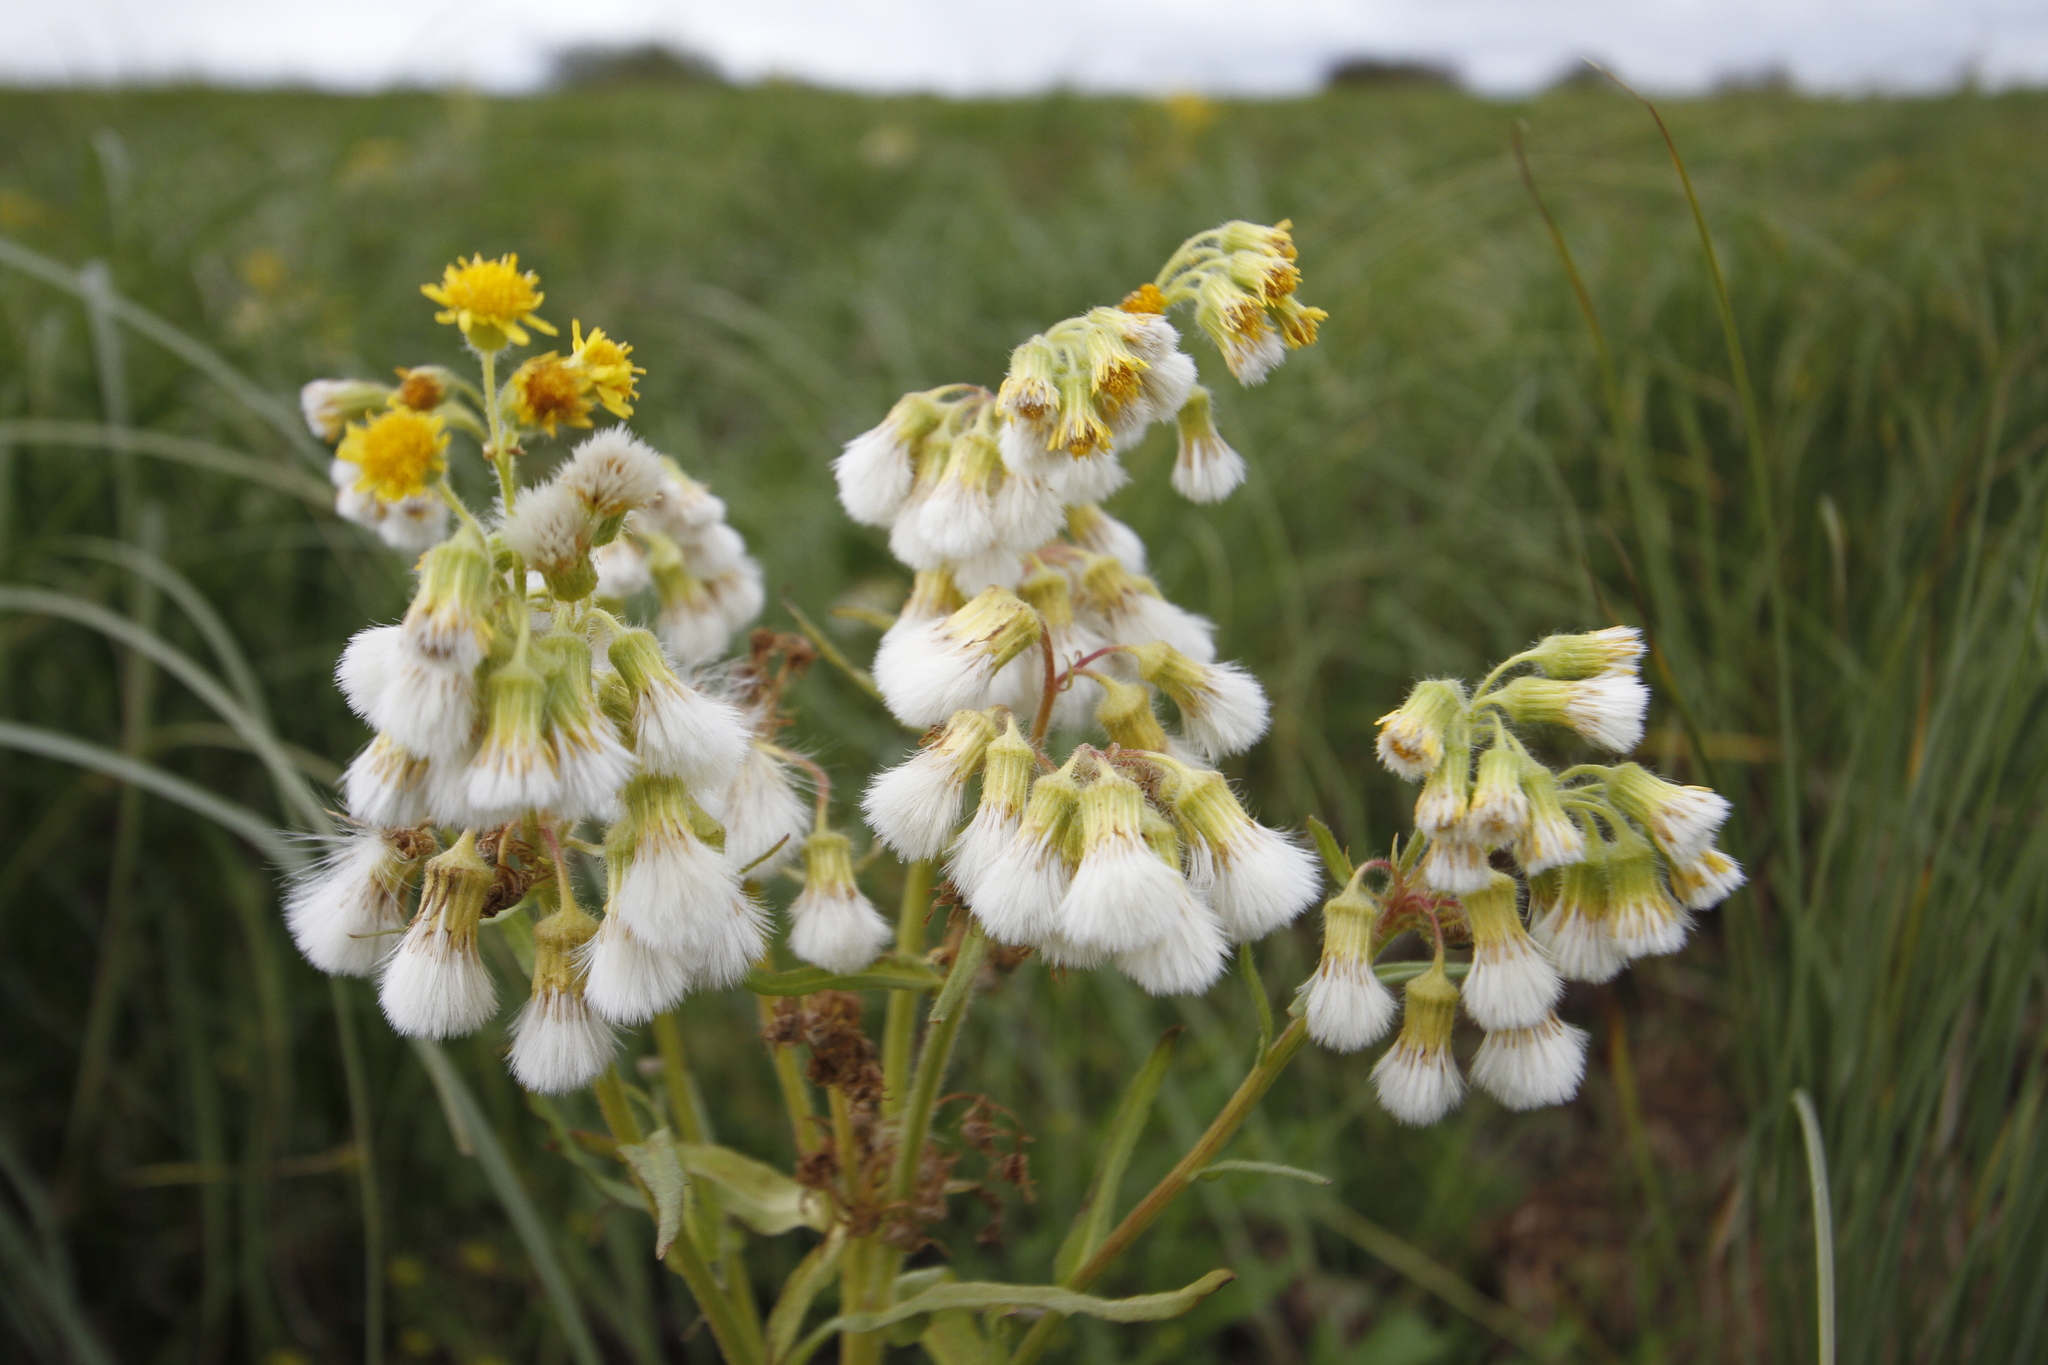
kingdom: Plantae
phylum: Tracheophyta
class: Magnoliopsida
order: Asterales
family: Asteraceae
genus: Tephroseris
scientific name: Tephroseris palustris
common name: Marsh fleawort
